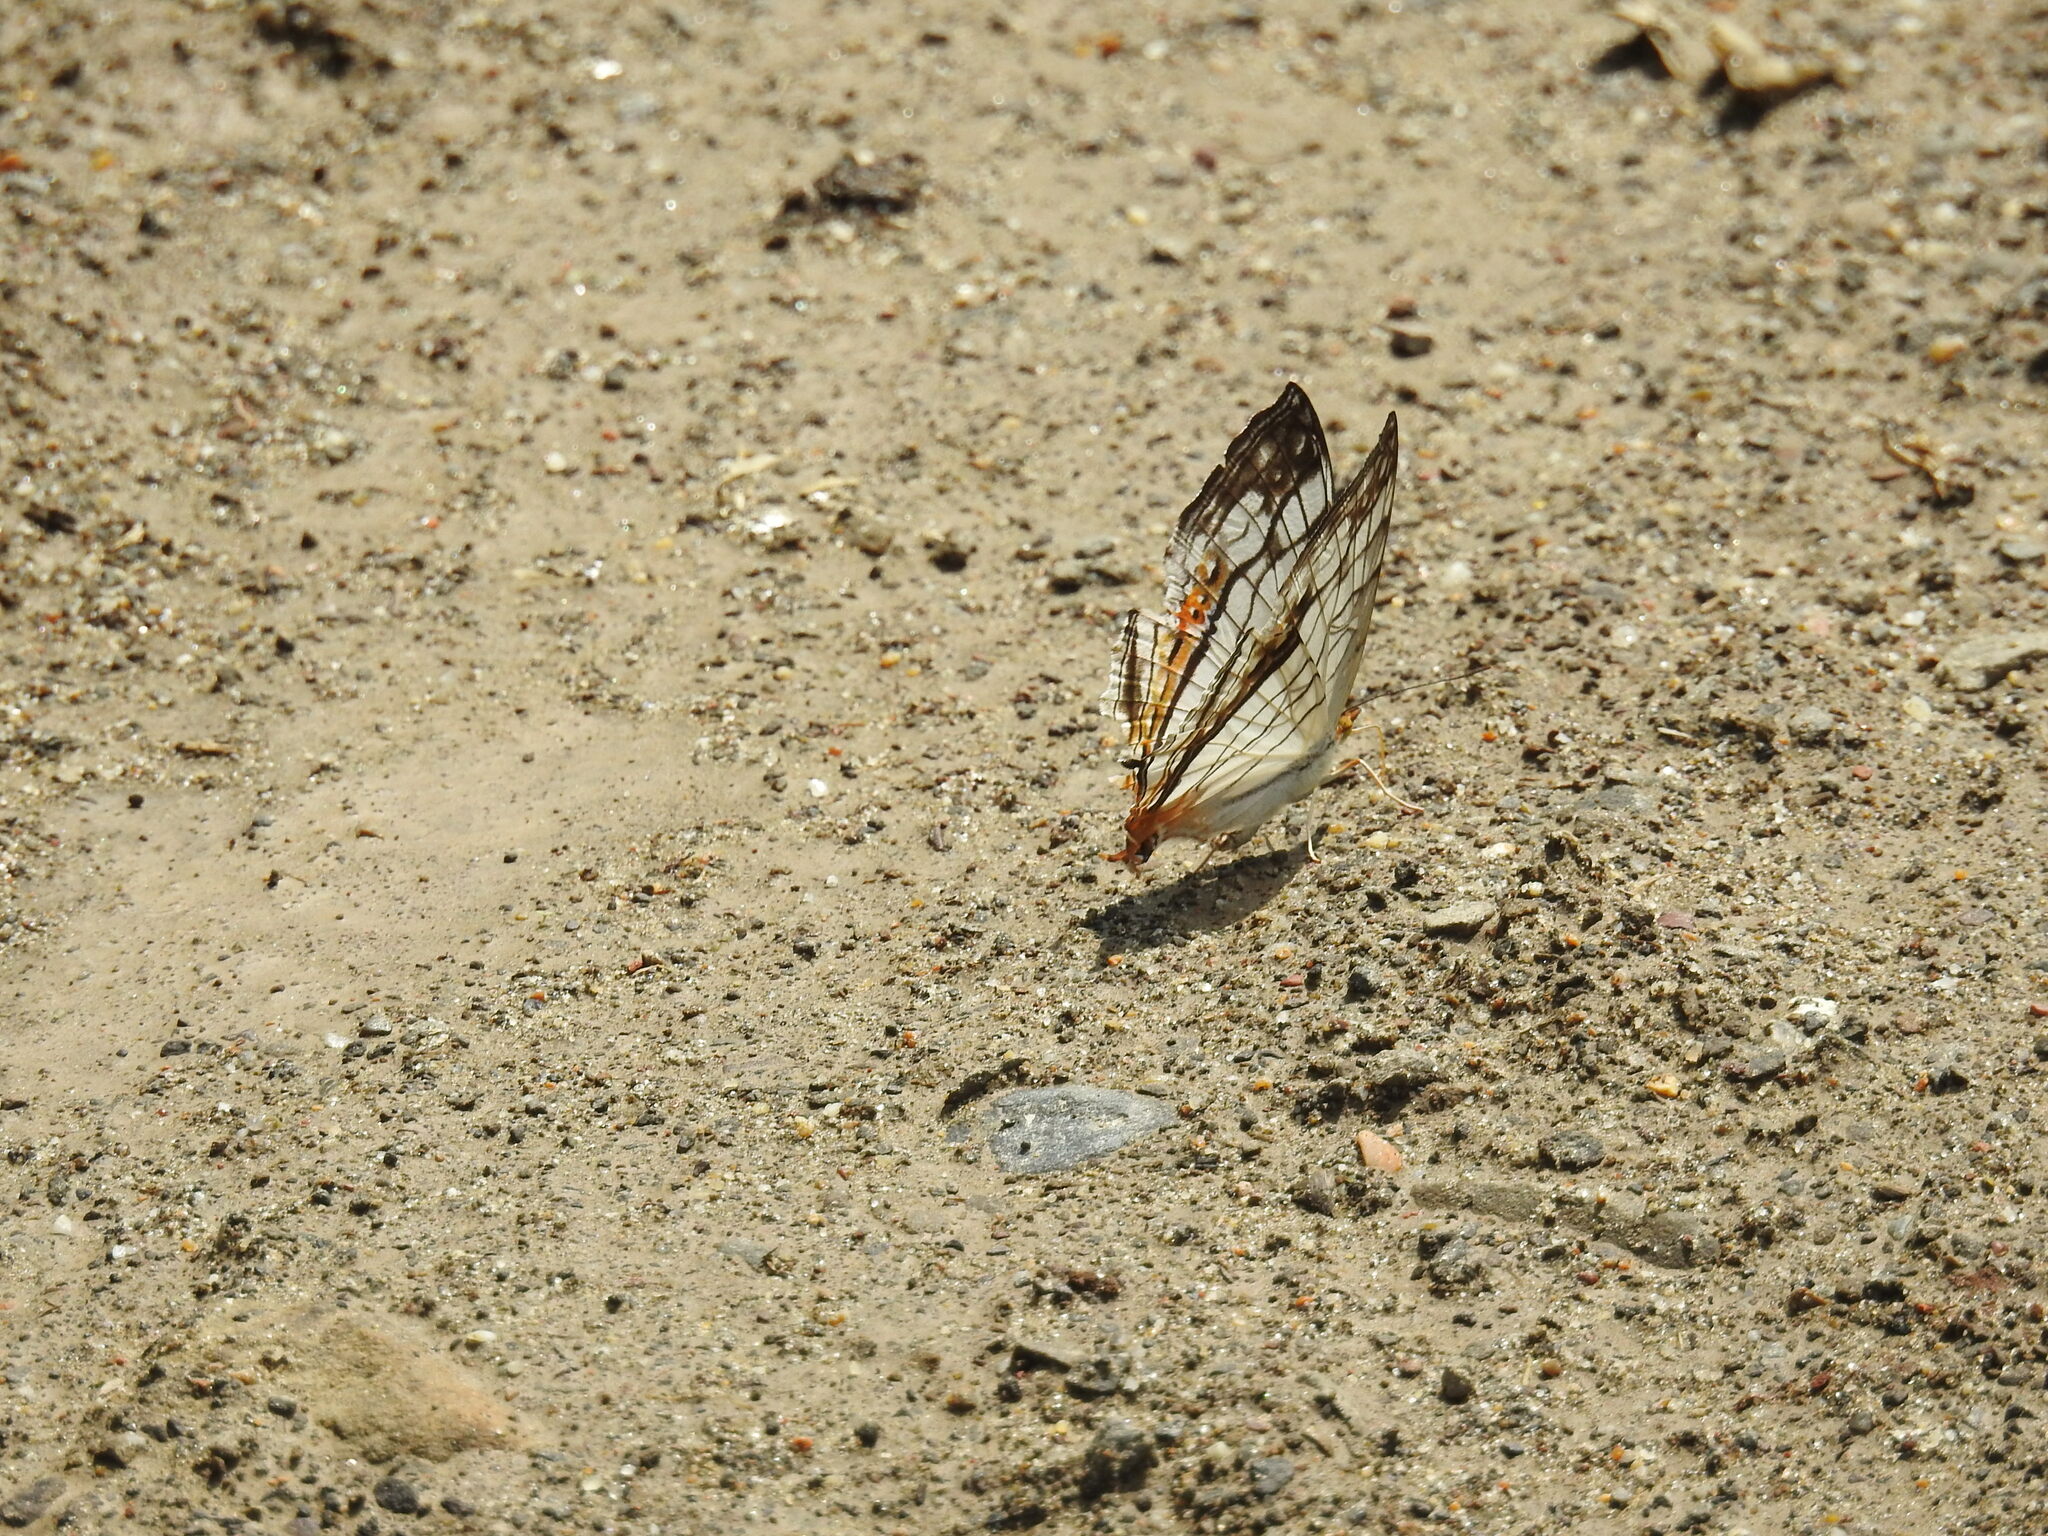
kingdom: Animalia
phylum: Arthropoda
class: Insecta
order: Lepidoptera
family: Nymphalidae
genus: Cyrestis
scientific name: Cyrestis thyodamas
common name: Common mapwing
